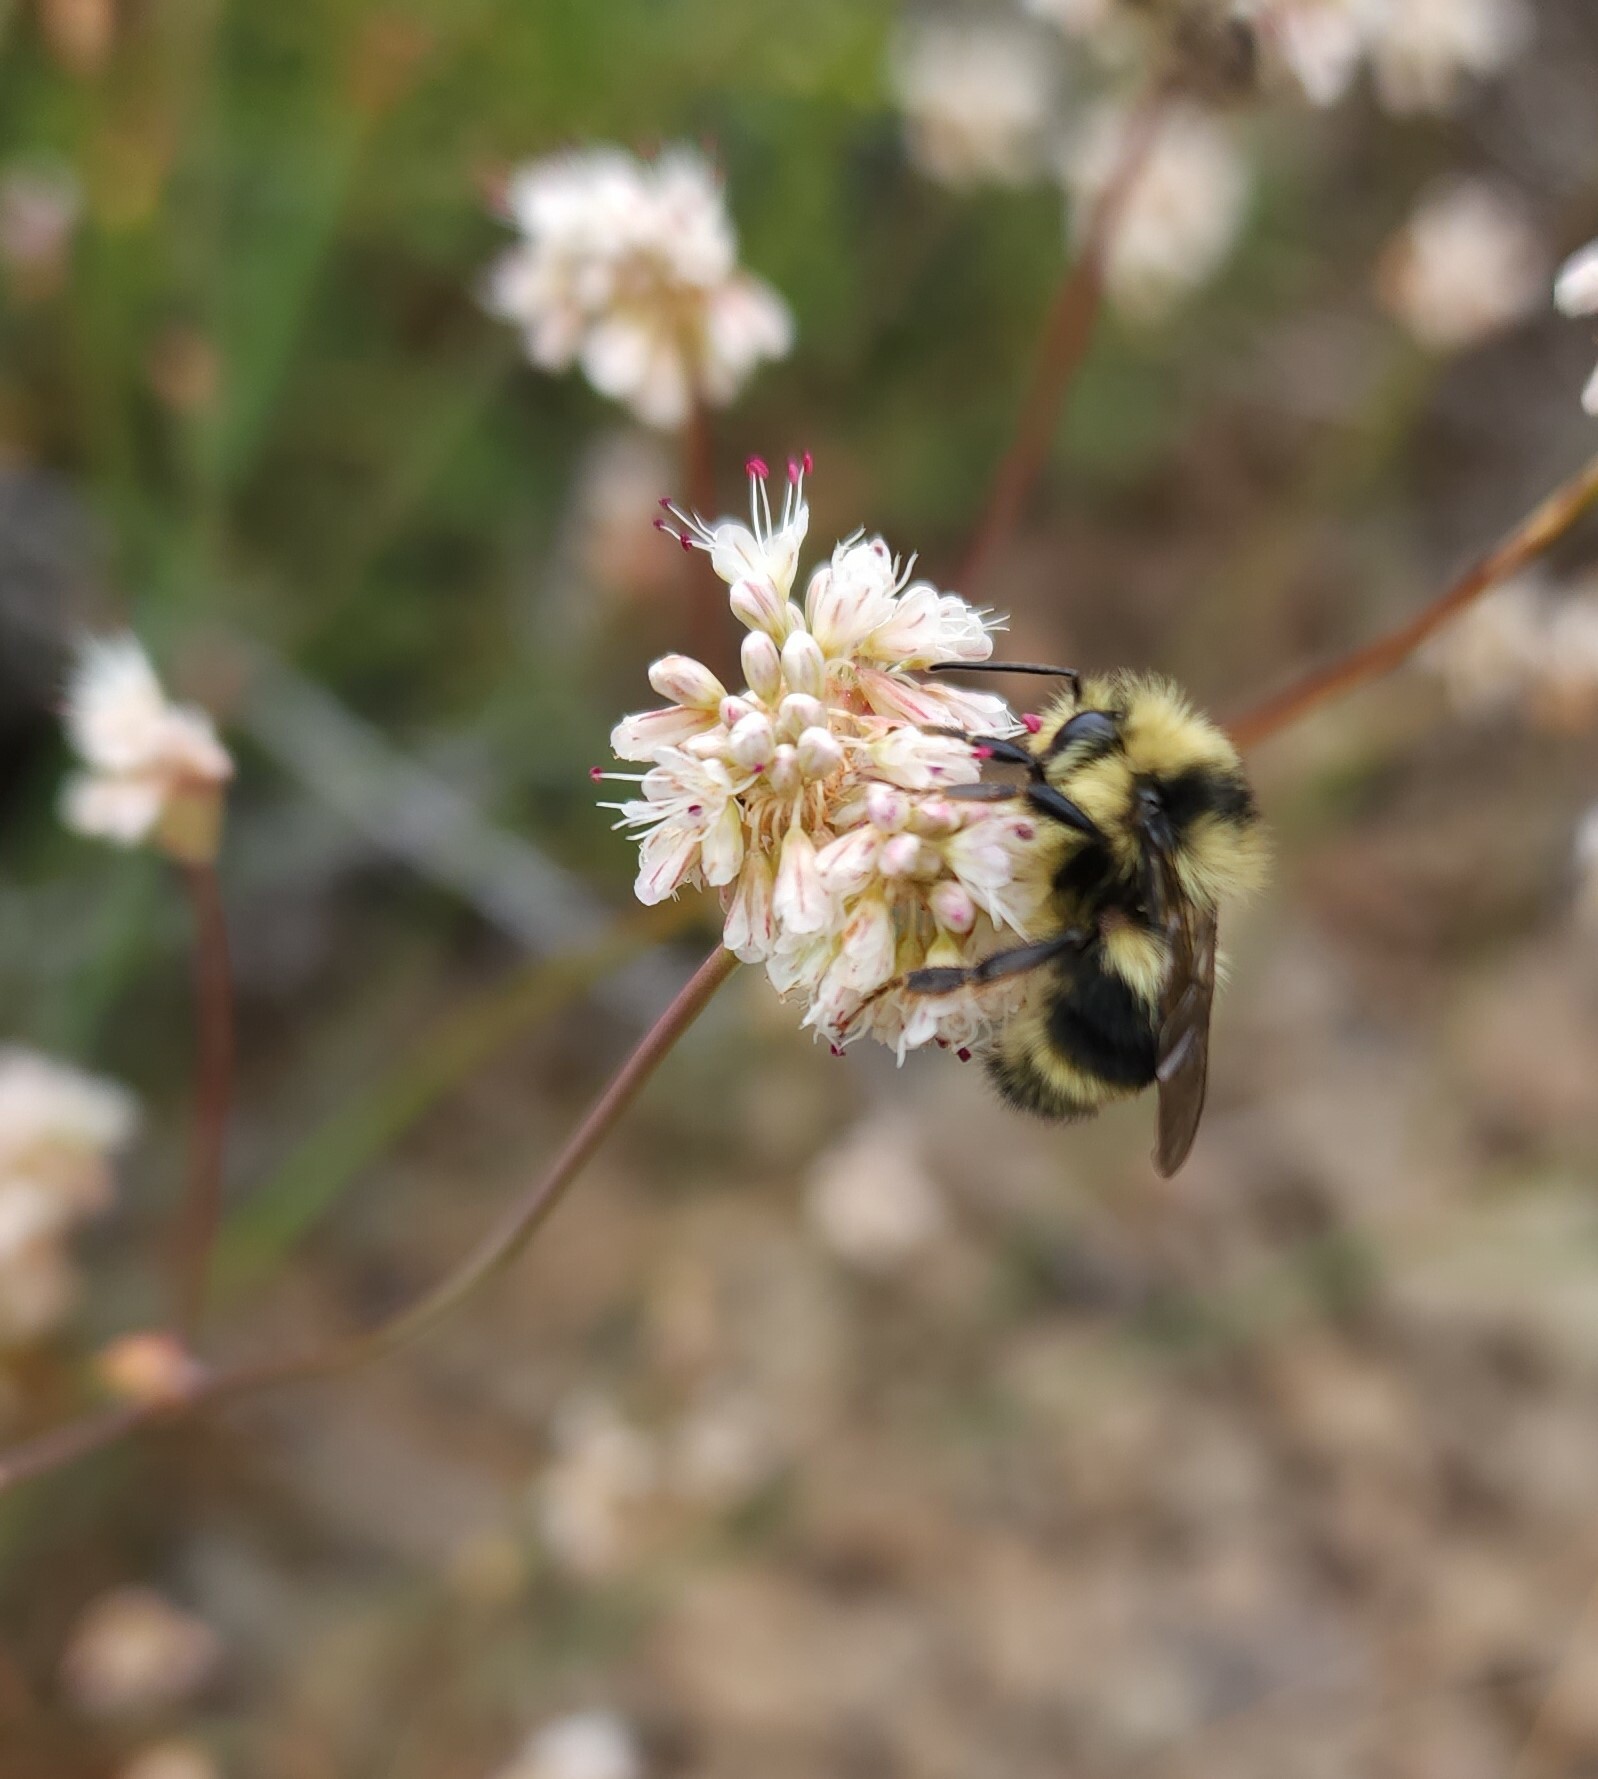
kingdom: Animalia
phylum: Arthropoda
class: Insecta
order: Hymenoptera
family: Apidae
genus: Bombus
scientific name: Bombus melanopygus
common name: Black tail bumble bee
